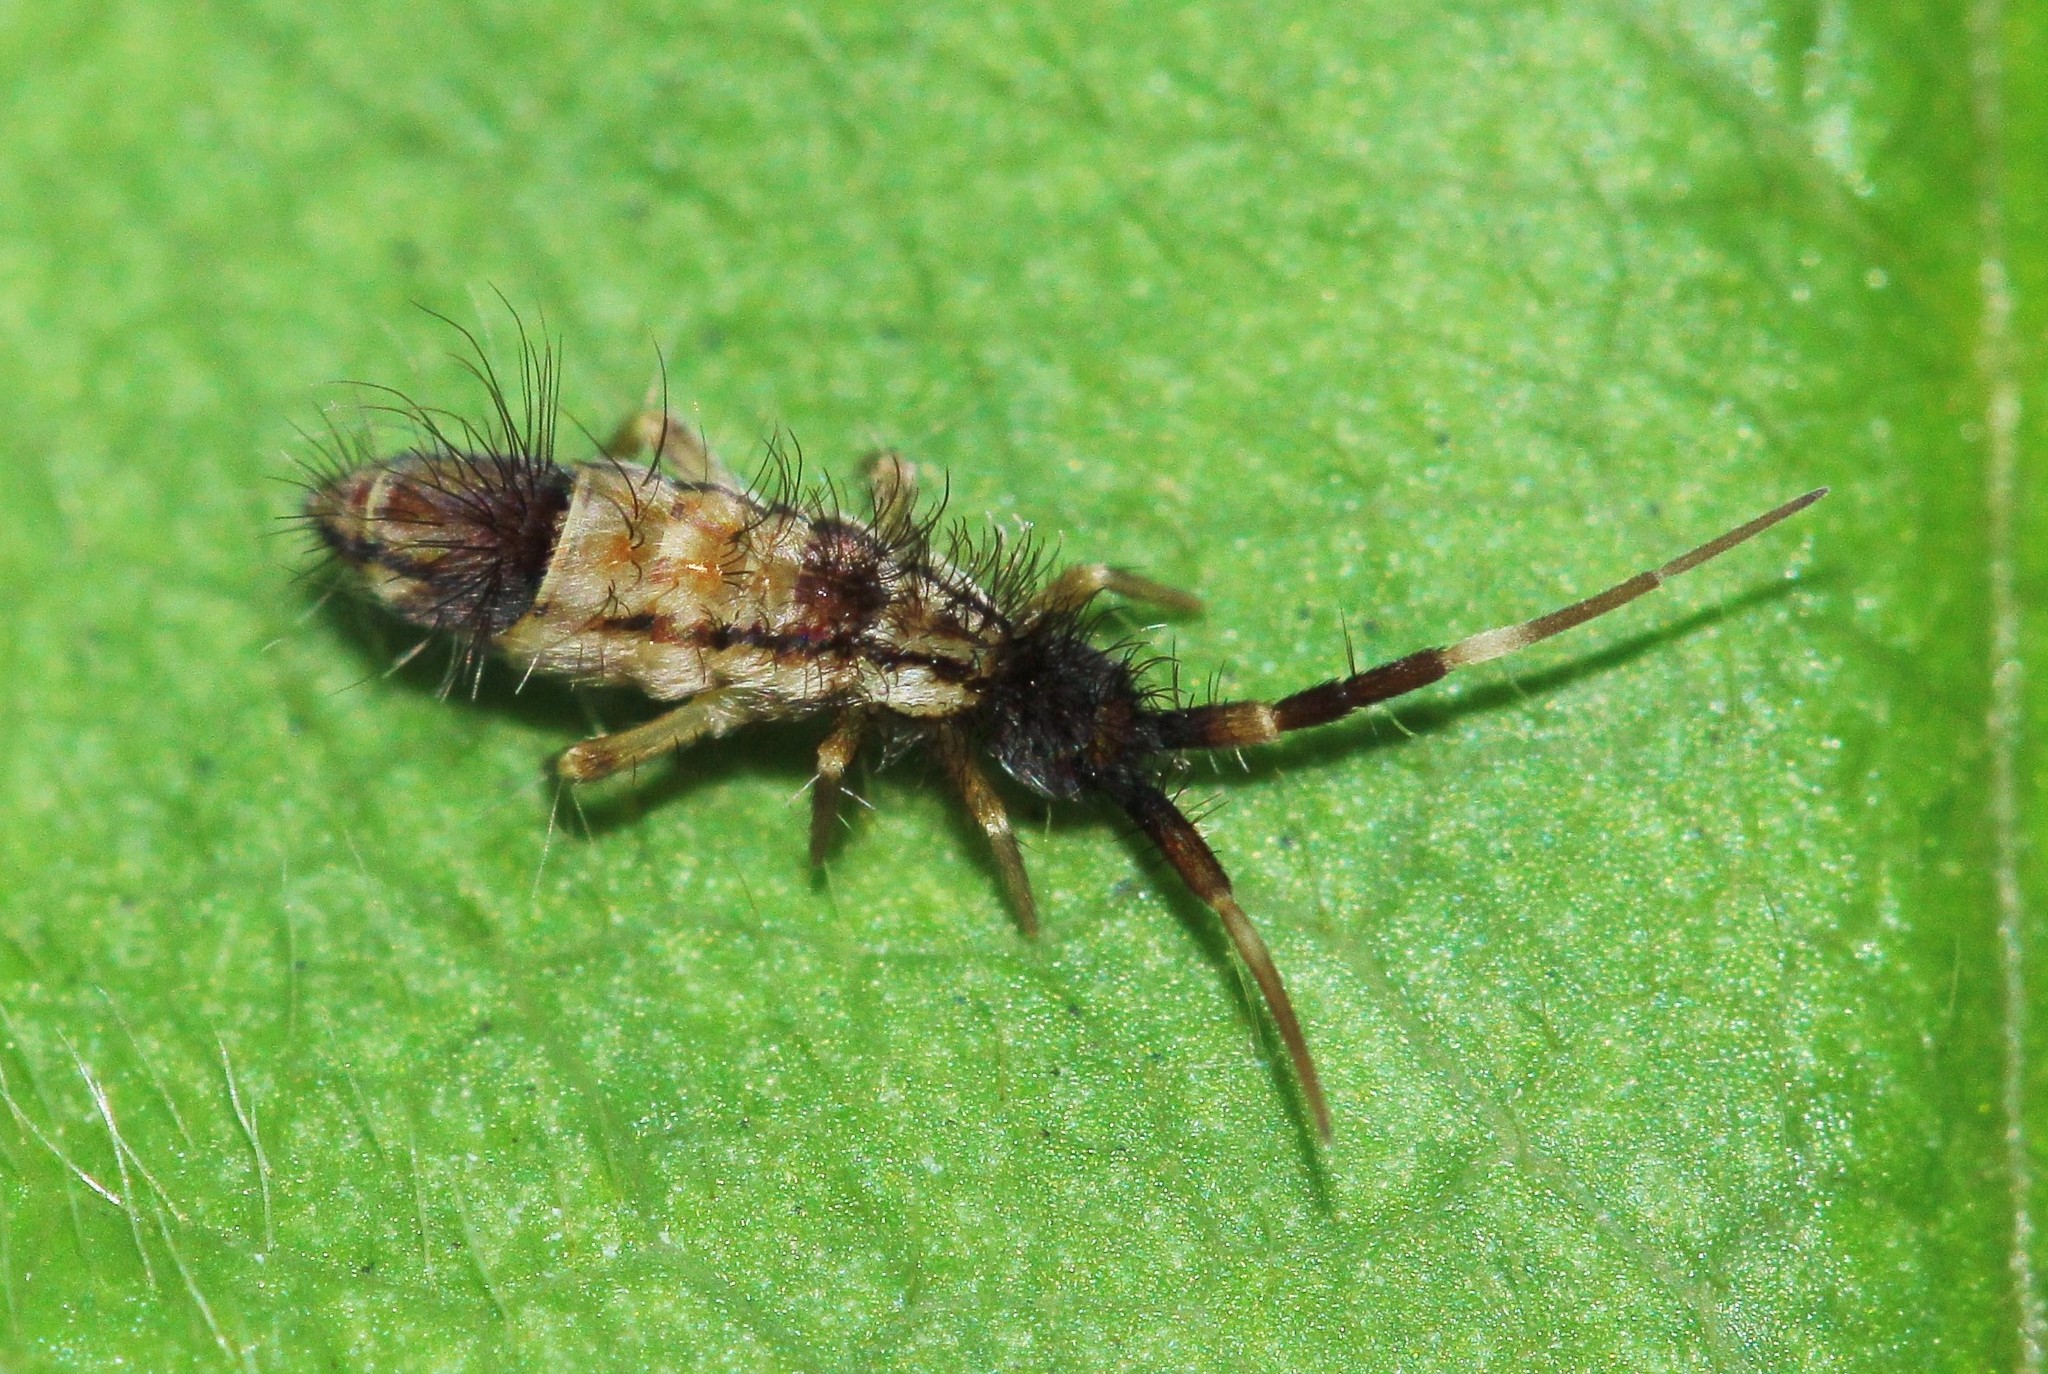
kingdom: Animalia
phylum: Arthropoda
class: Collembola
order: Entomobryomorpha
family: Entomobryidae
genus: Entomobrya
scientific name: Entomobrya nivalis
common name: Cosmopolitan springtail
